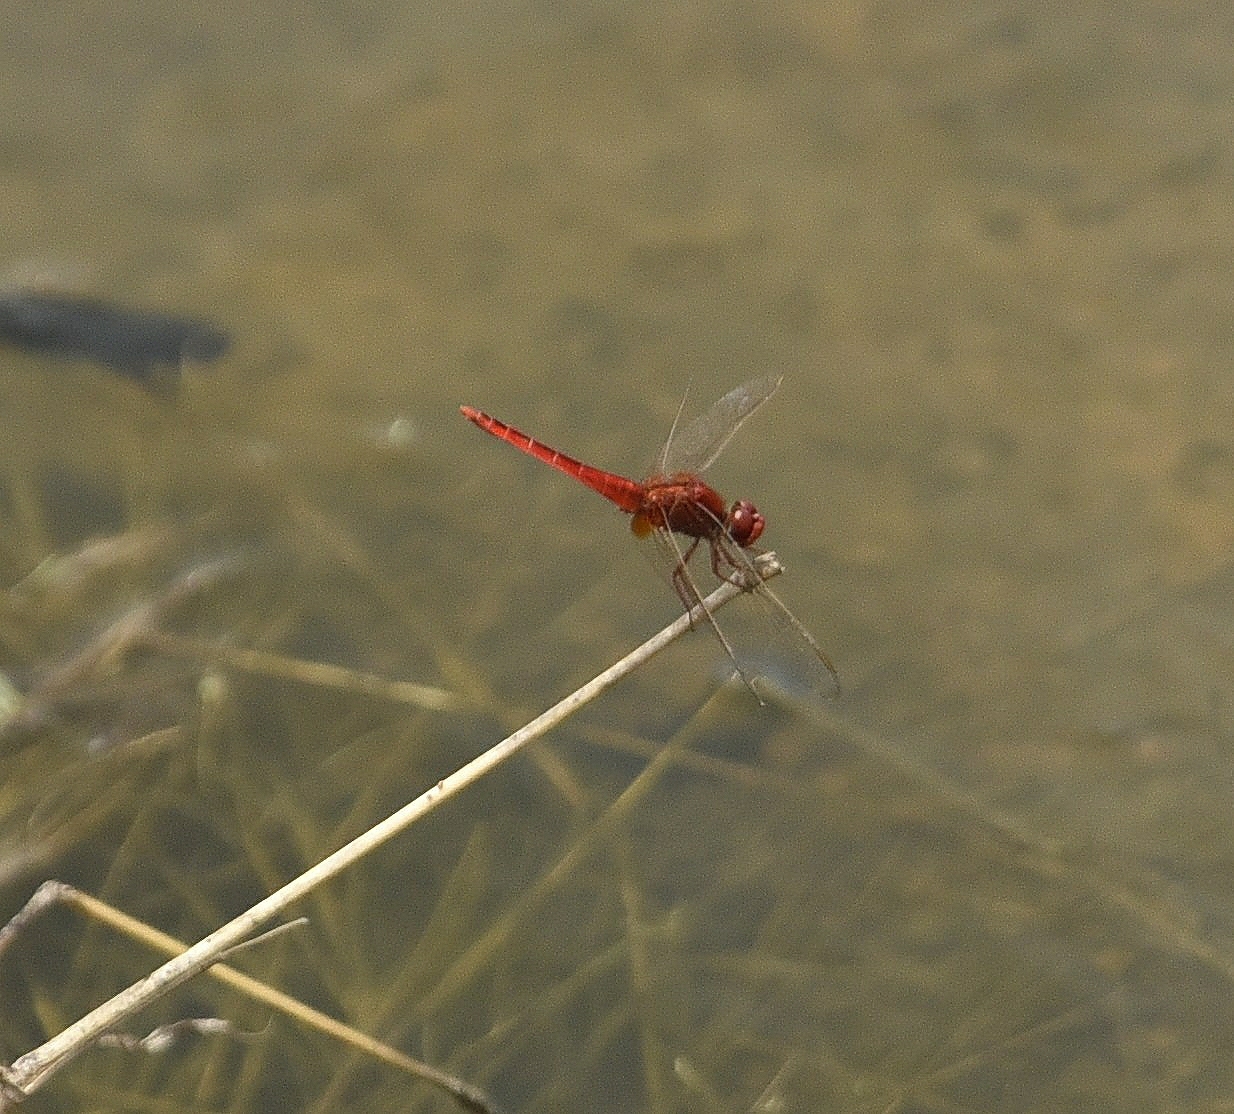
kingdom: Animalia
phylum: Arthropoda
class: Insecta
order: Odonata
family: Libellulidae
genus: Crocothemis
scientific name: Crocothemis servilia
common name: Scarlet skimmer
